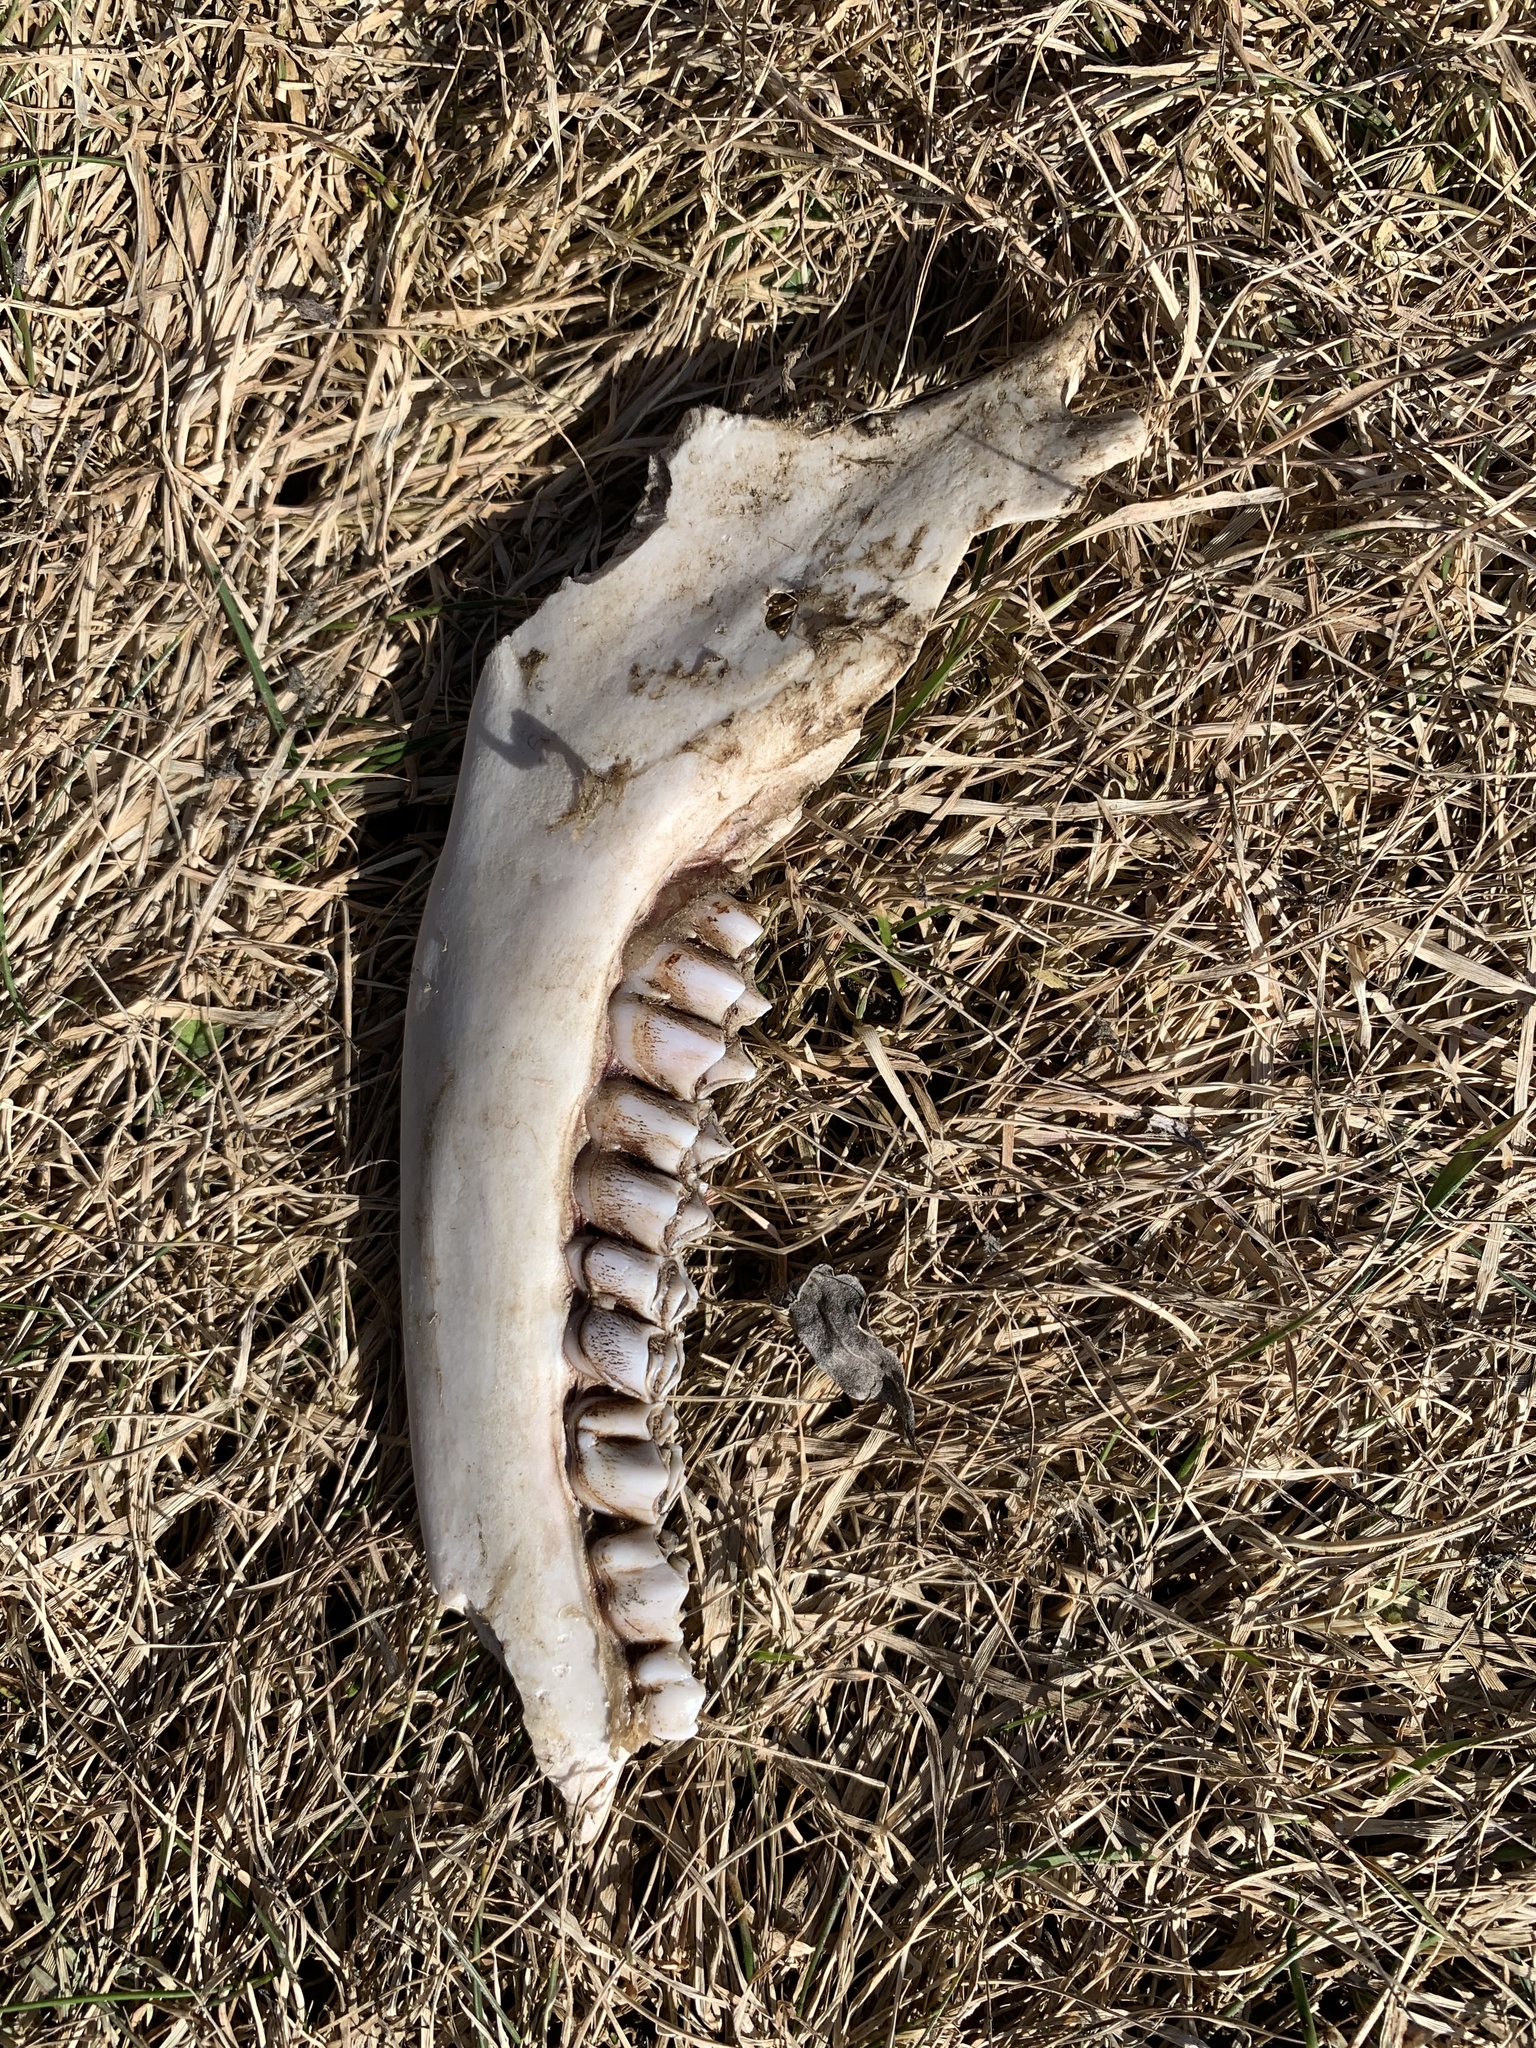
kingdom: Animalia
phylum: Chordata
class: Mammalia
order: Artiodactyla
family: Cervidae
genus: Odocoileus
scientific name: Odocoileus virginianus
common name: White-tailed deer
